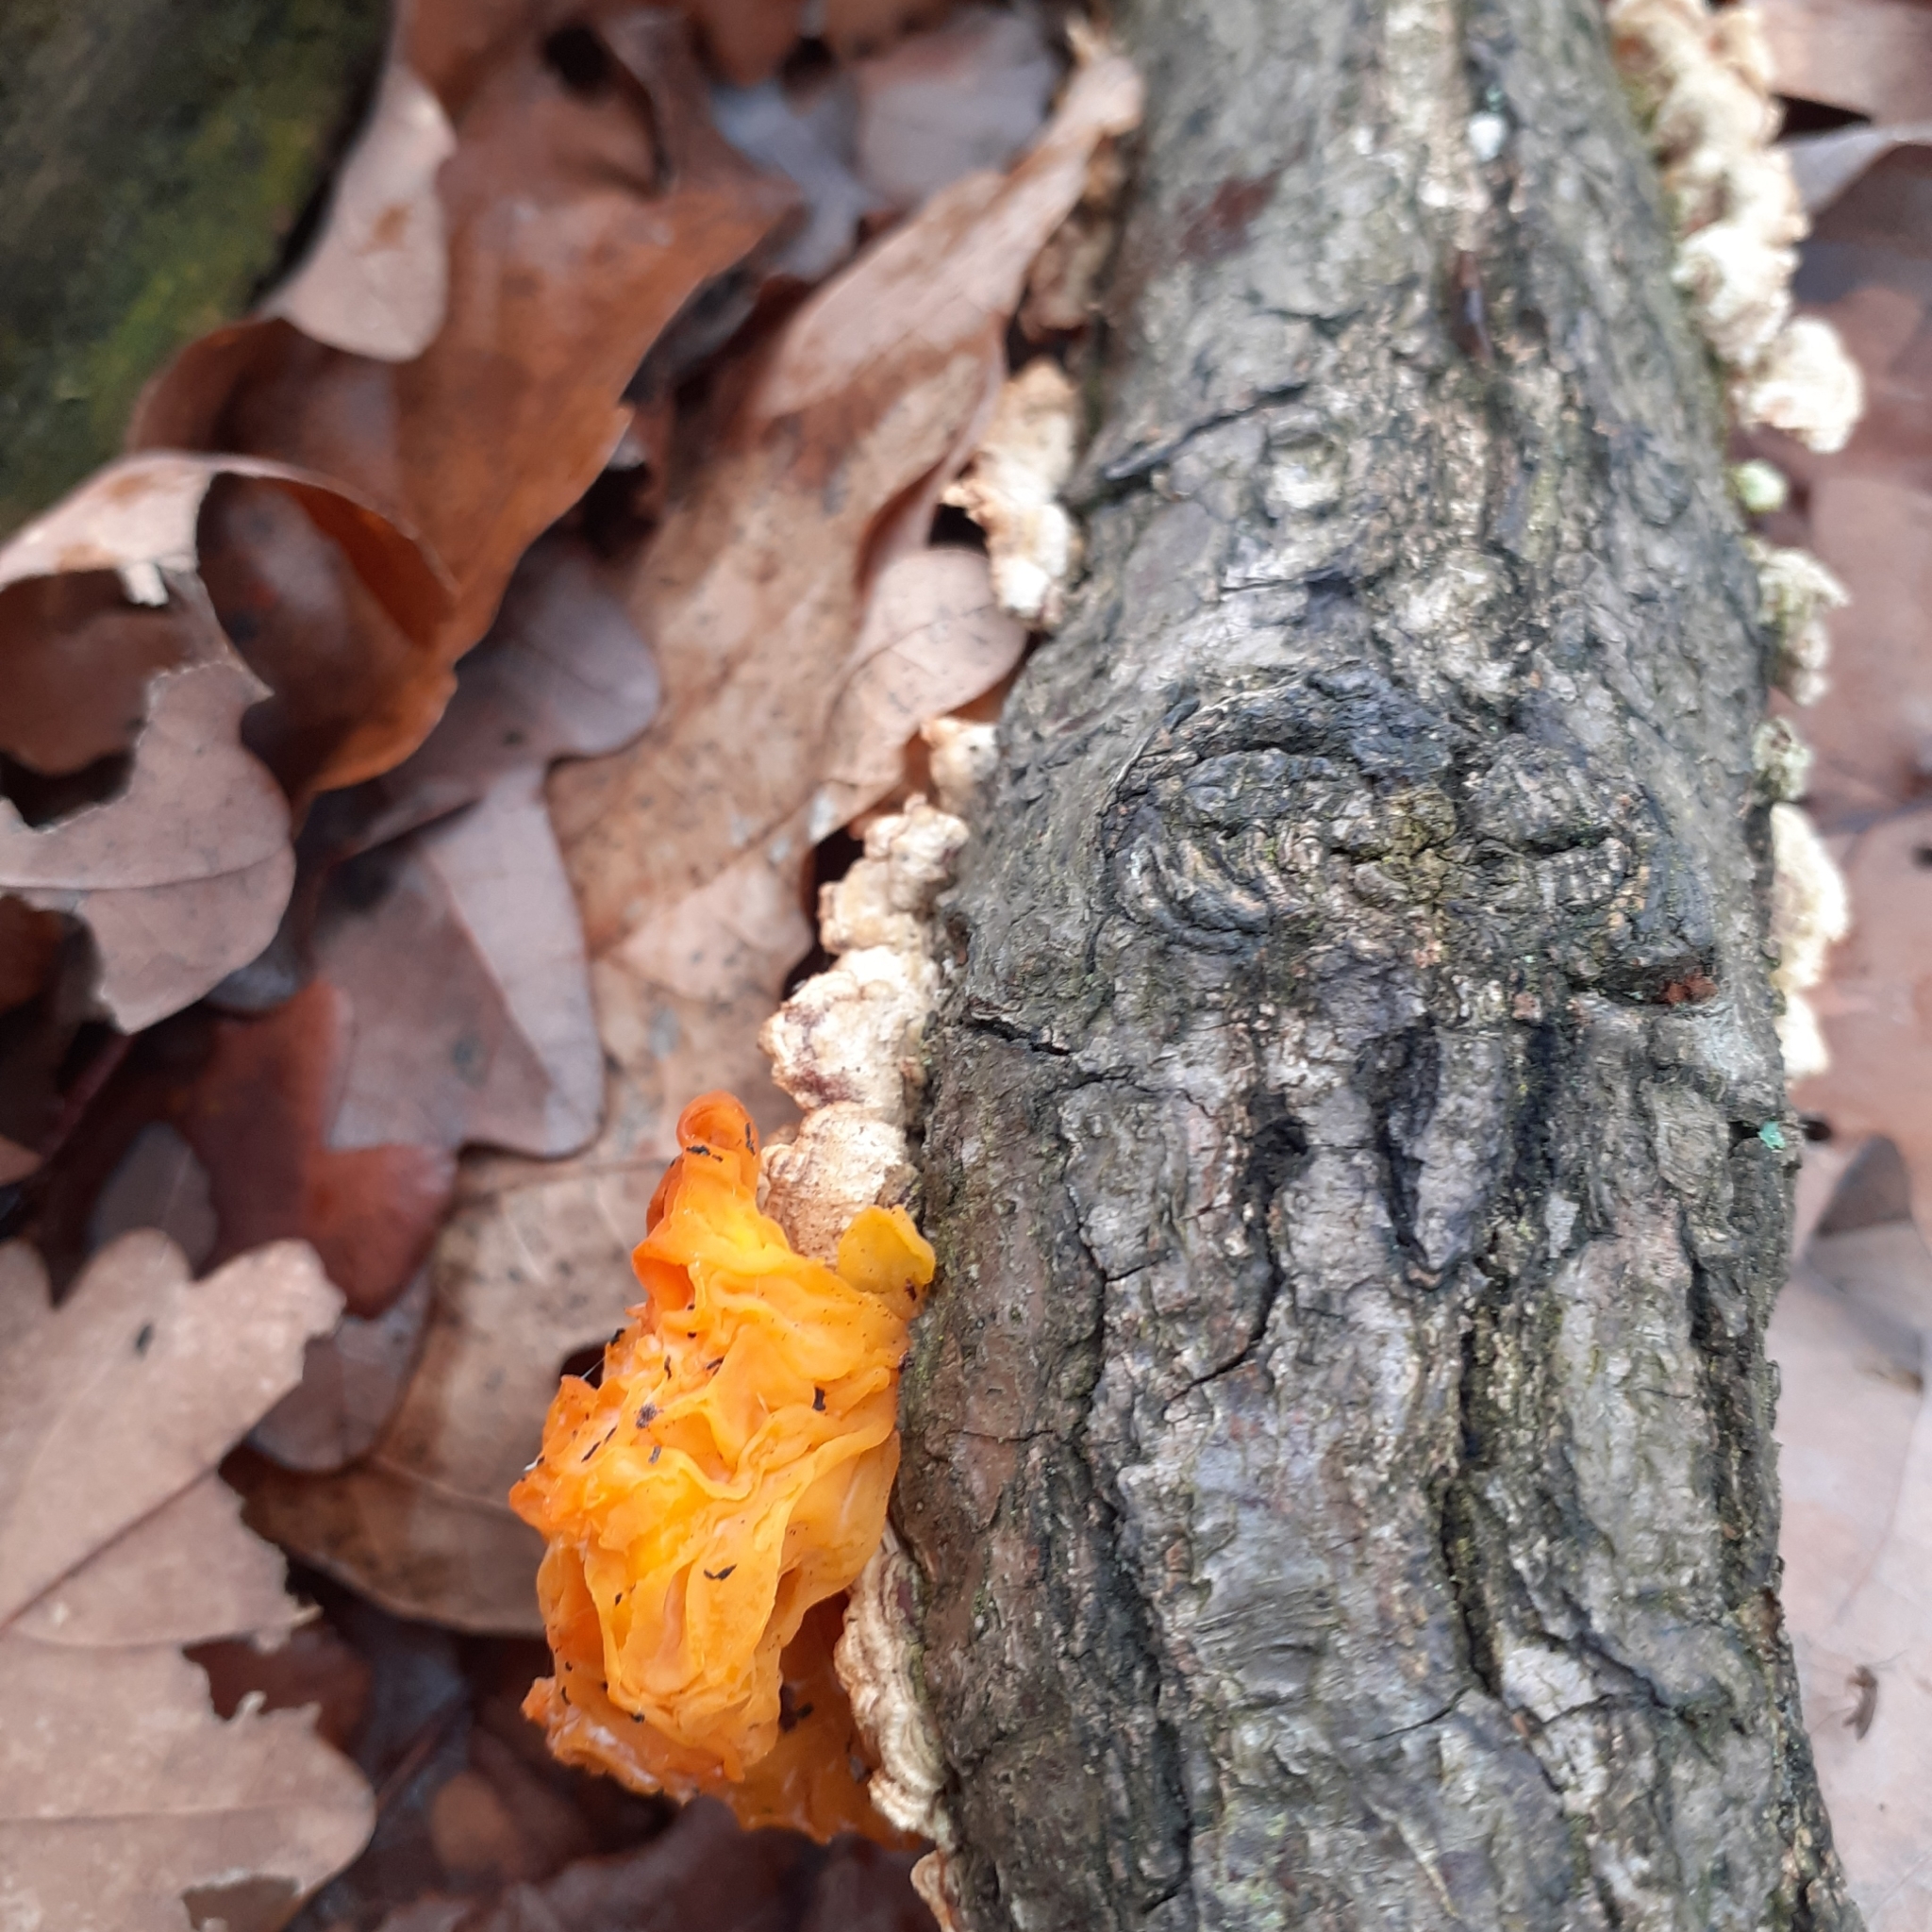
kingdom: Fungi
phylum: Basidiomycota
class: Tremellomycetes
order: Tremellales
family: Naemateliaceae
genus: Naematelia
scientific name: Naematelia aurantia
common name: Golden ear
